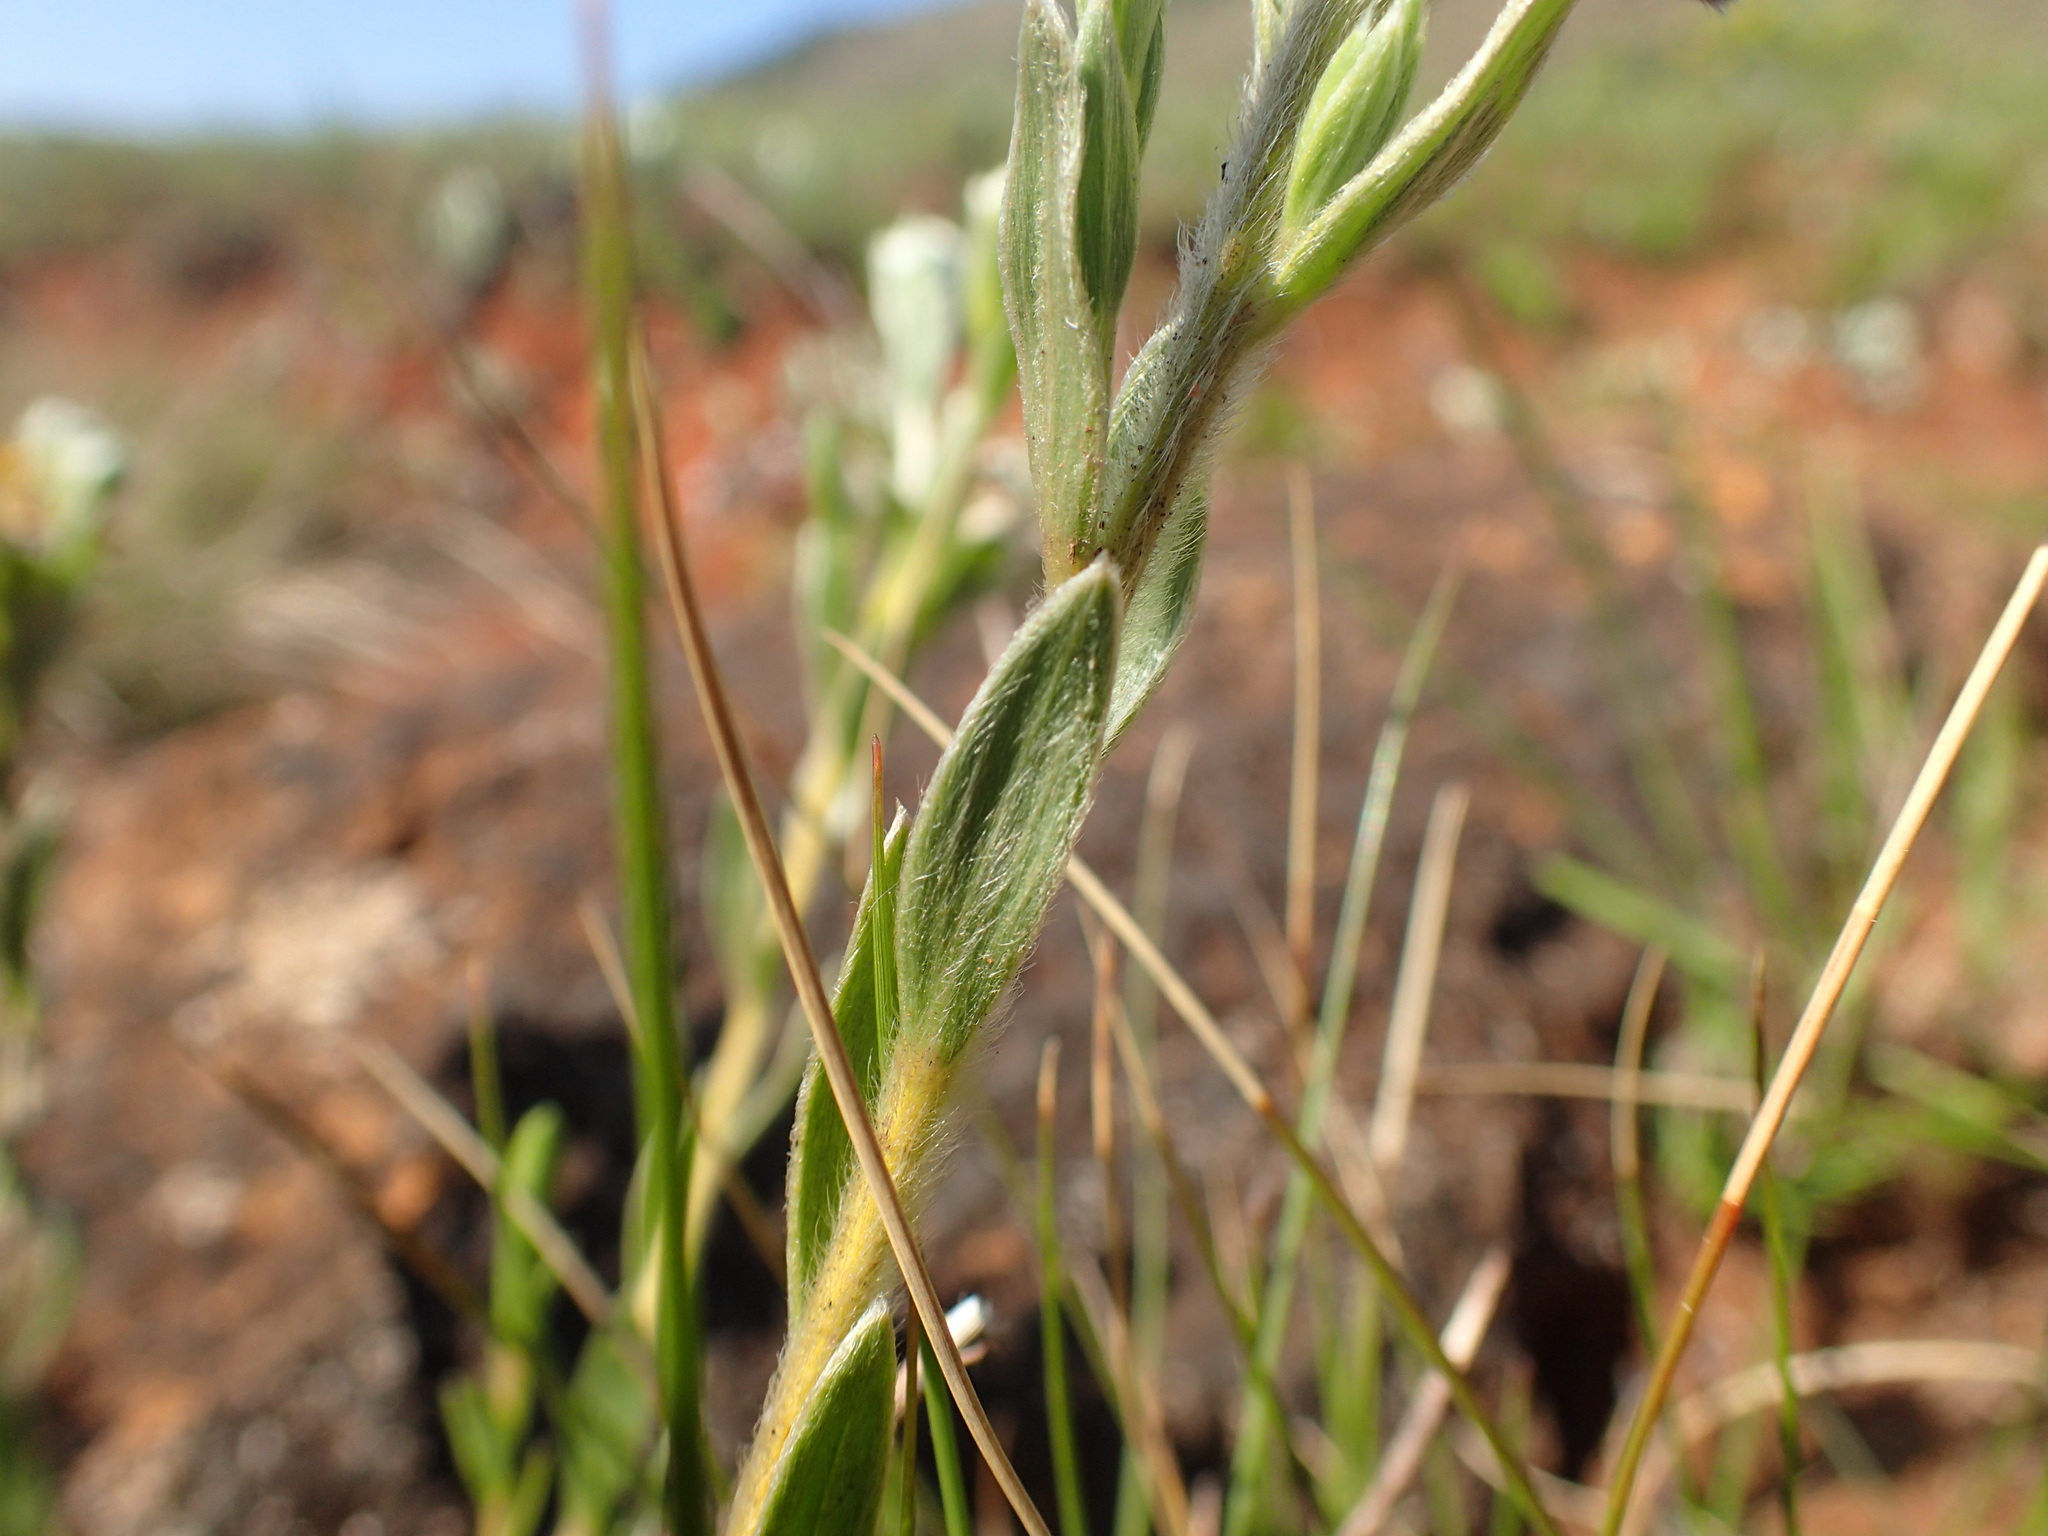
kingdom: Plantae
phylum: Tracheophyta
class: Magnoliopsida
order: Malvales
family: Thymelaeaceae
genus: Gnidia
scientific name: Gnidia splendens
